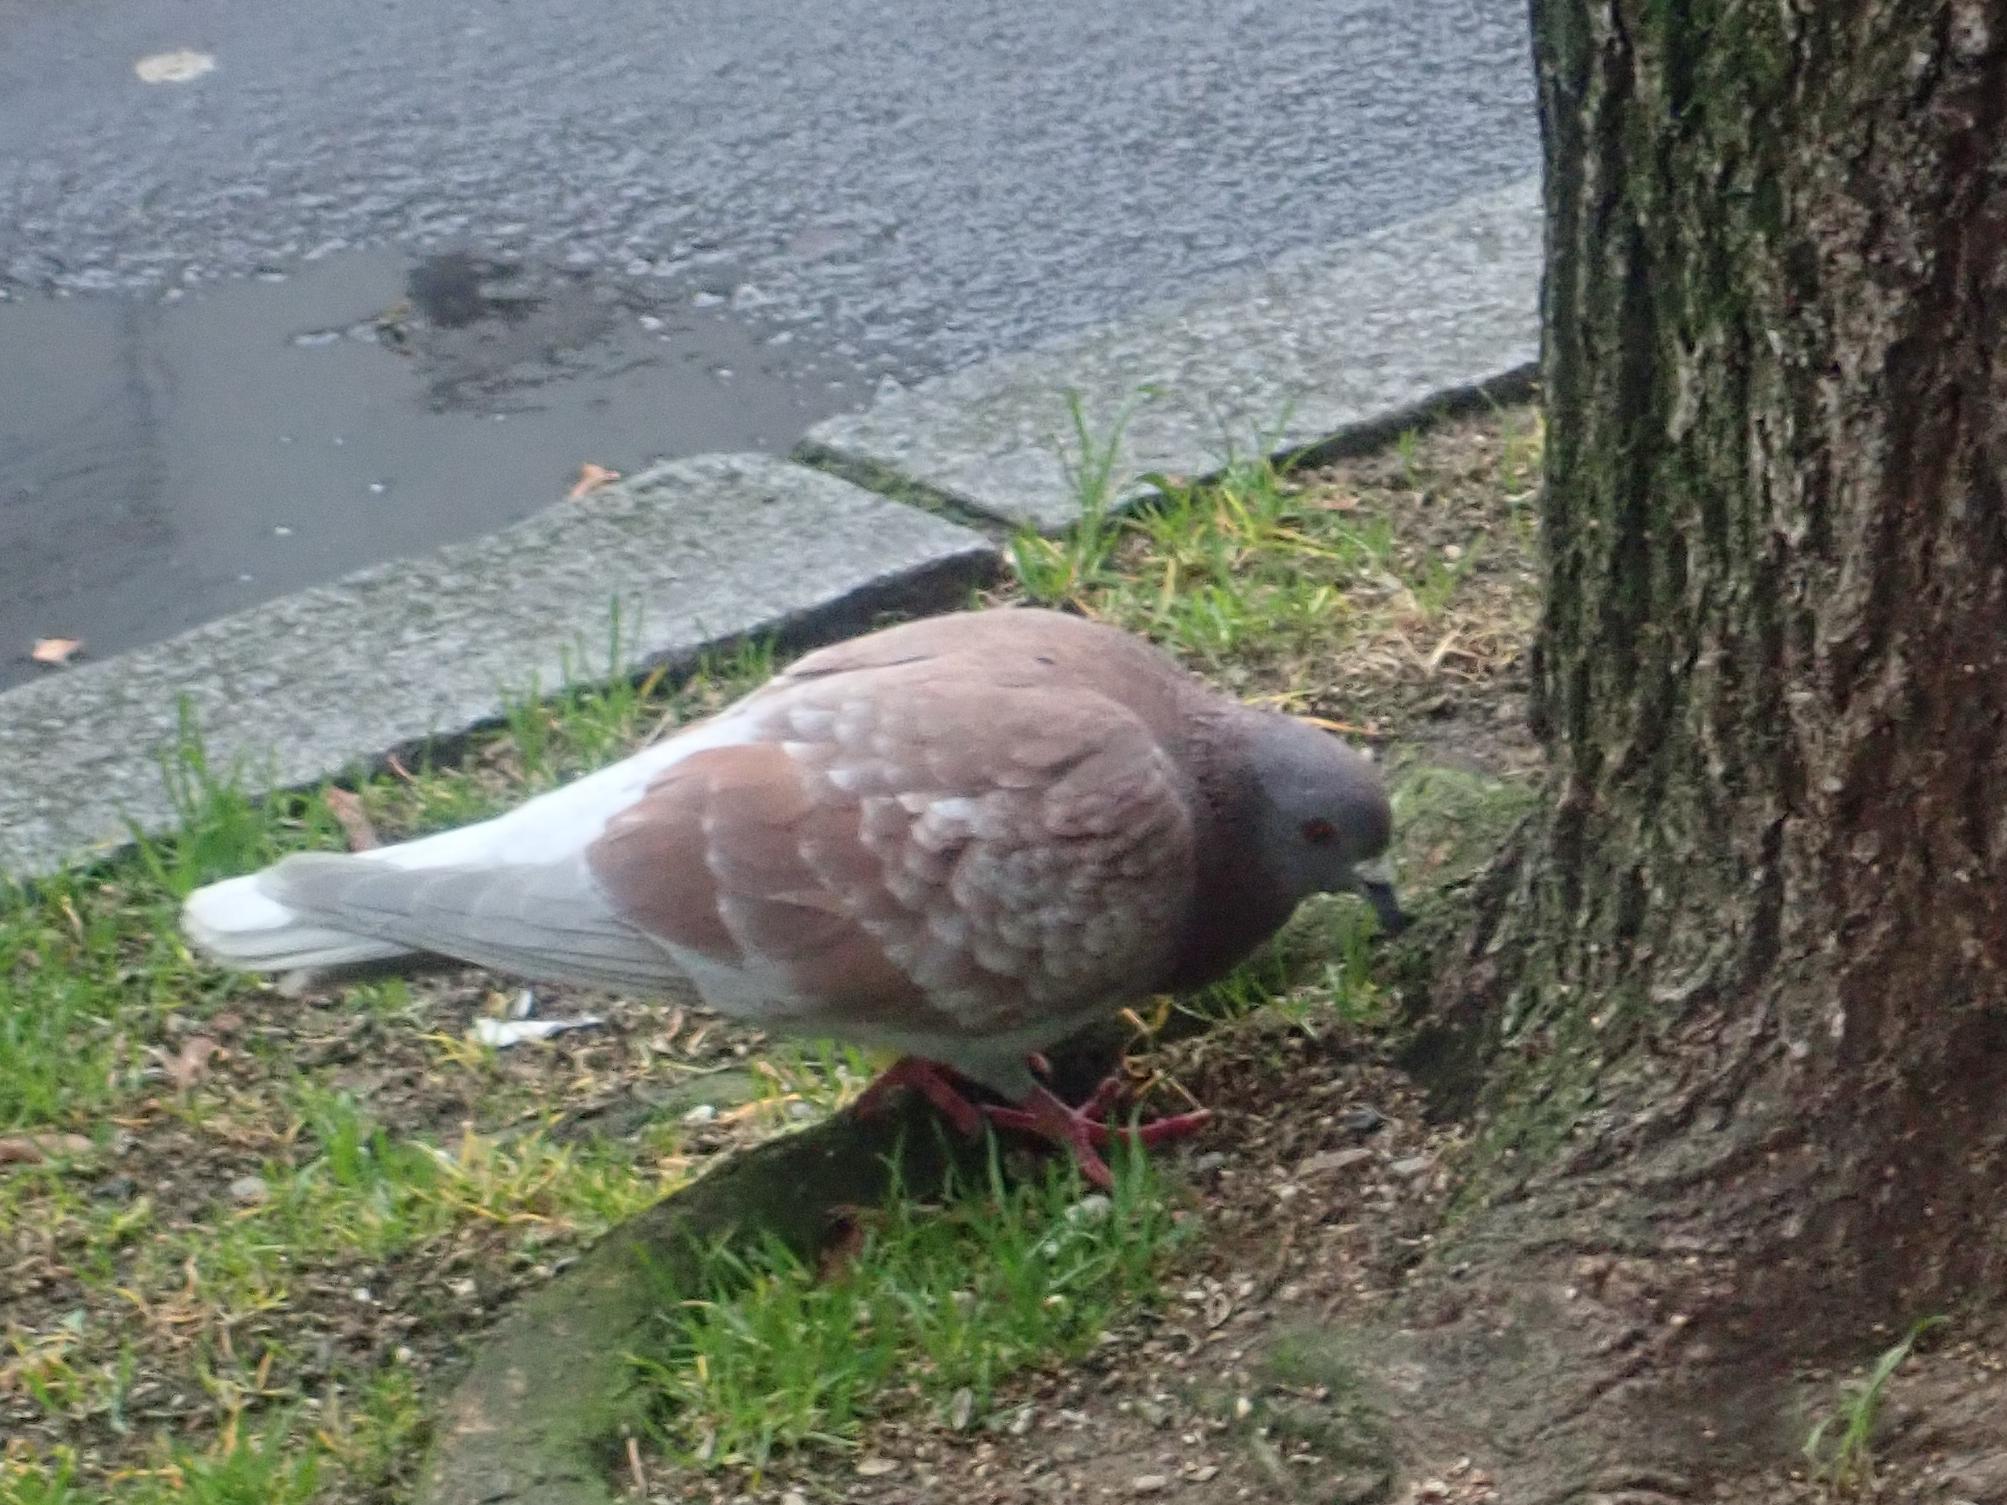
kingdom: Animalia
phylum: Chordata
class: Aves
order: Columbiformes
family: Columbidae
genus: Columba
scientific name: Columba livia
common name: Rock pigeon
